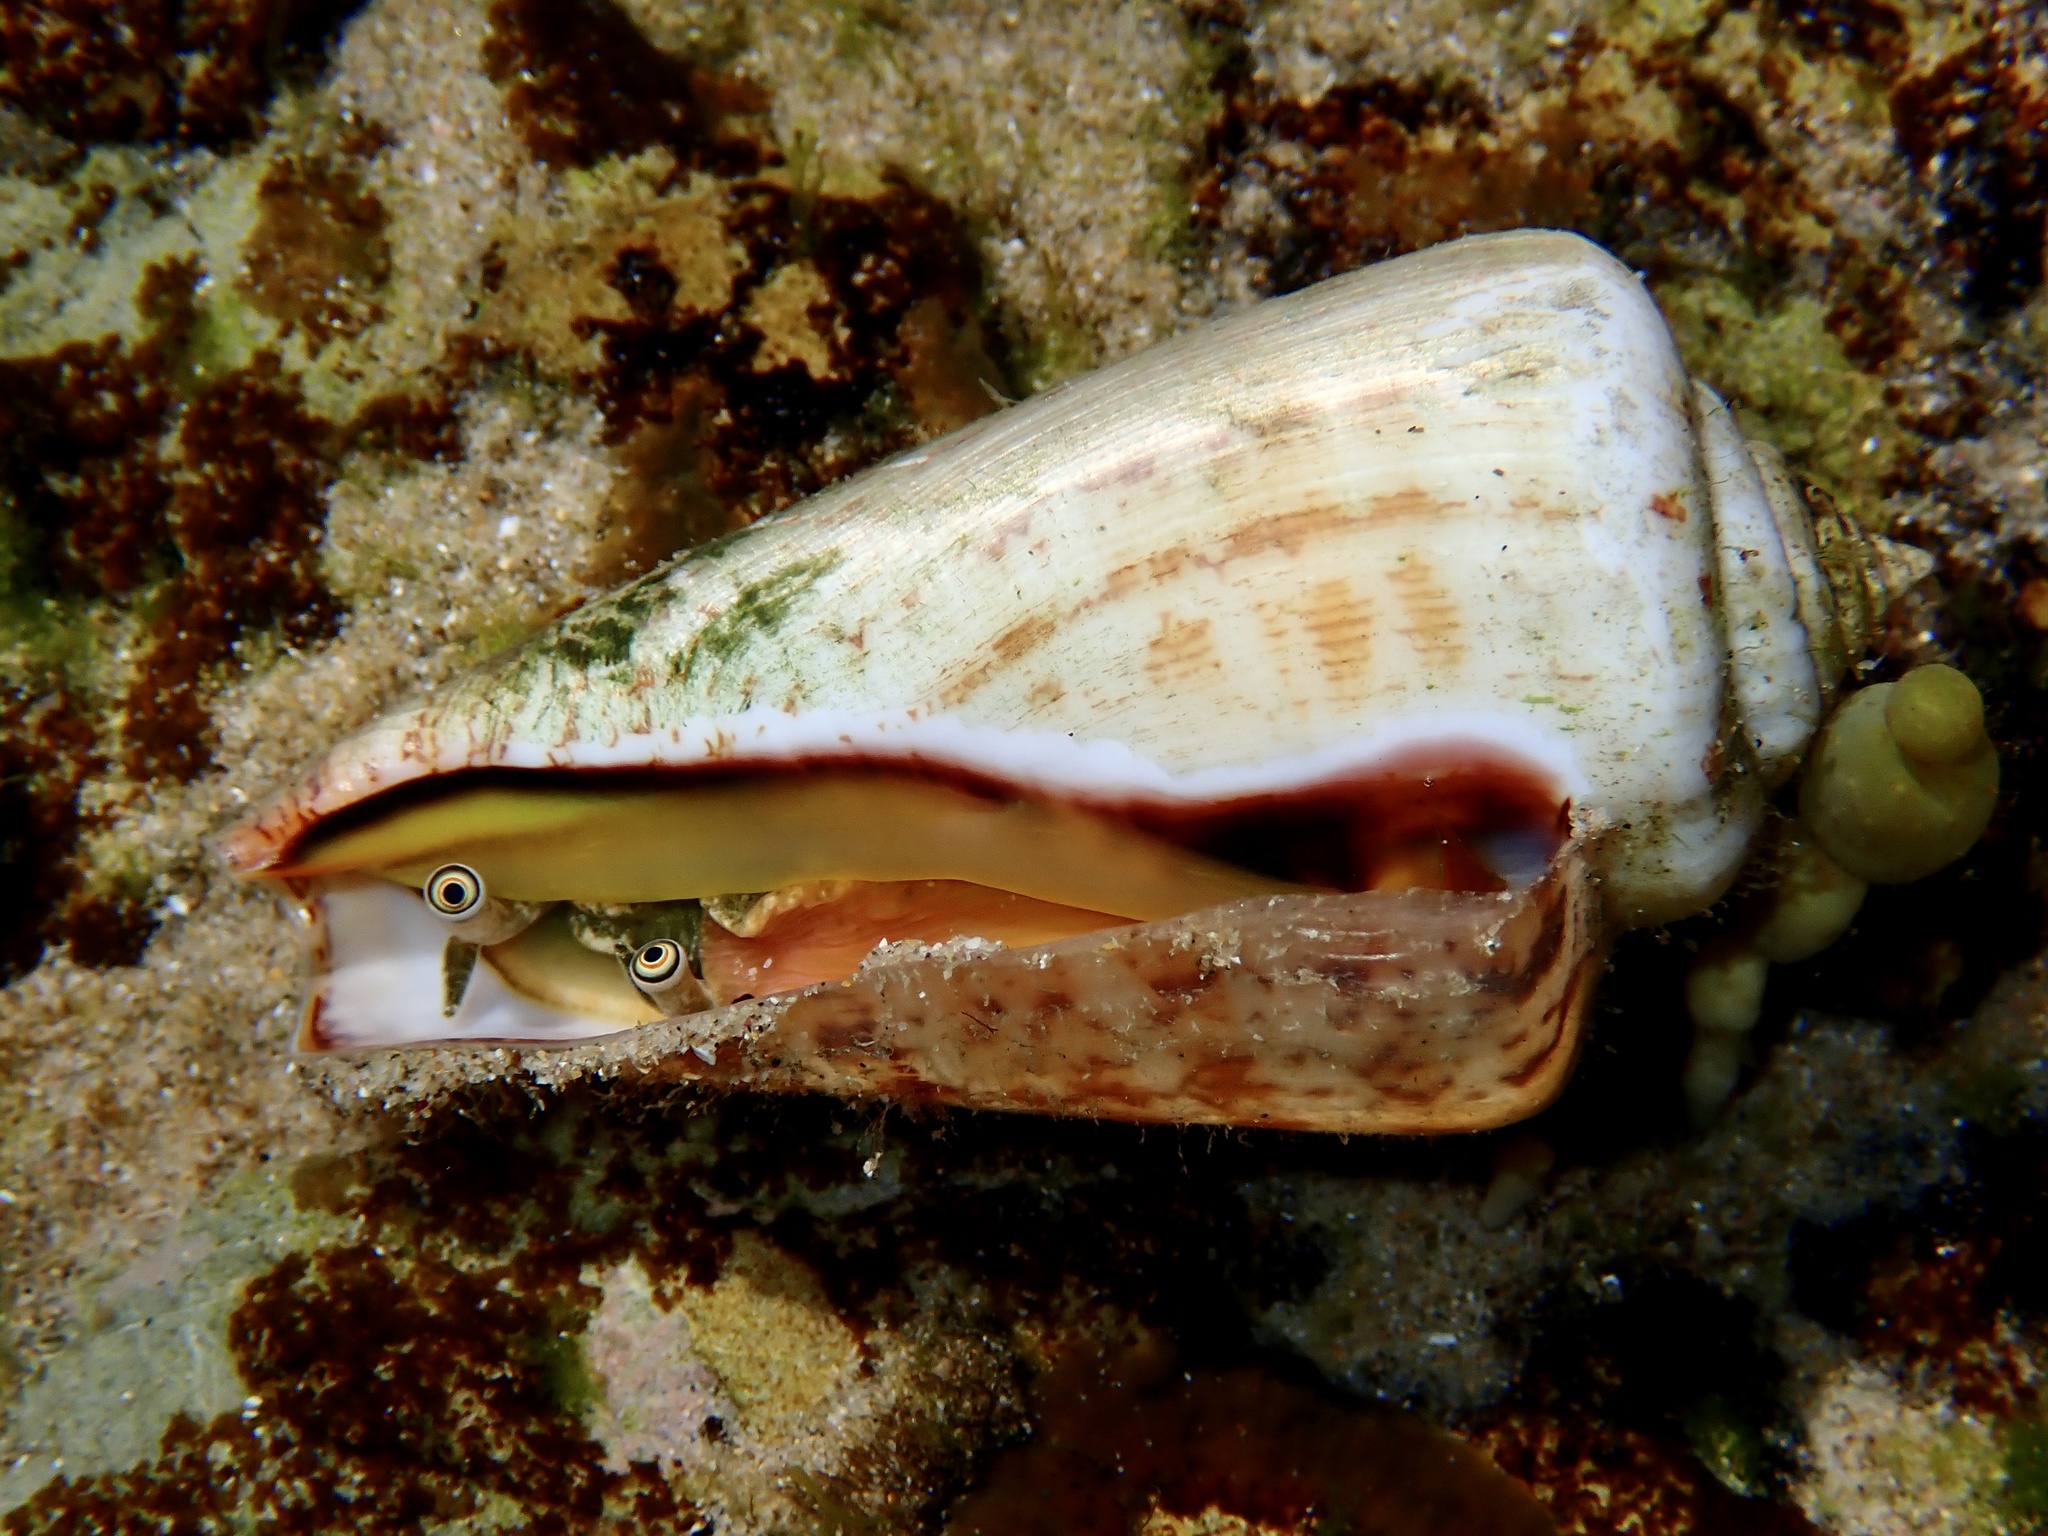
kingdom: Animalia
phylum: Mollusca
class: Gastropoda
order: Littorinimorpha
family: Strombidae
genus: Conomurex
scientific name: Conomurex luhuanus
